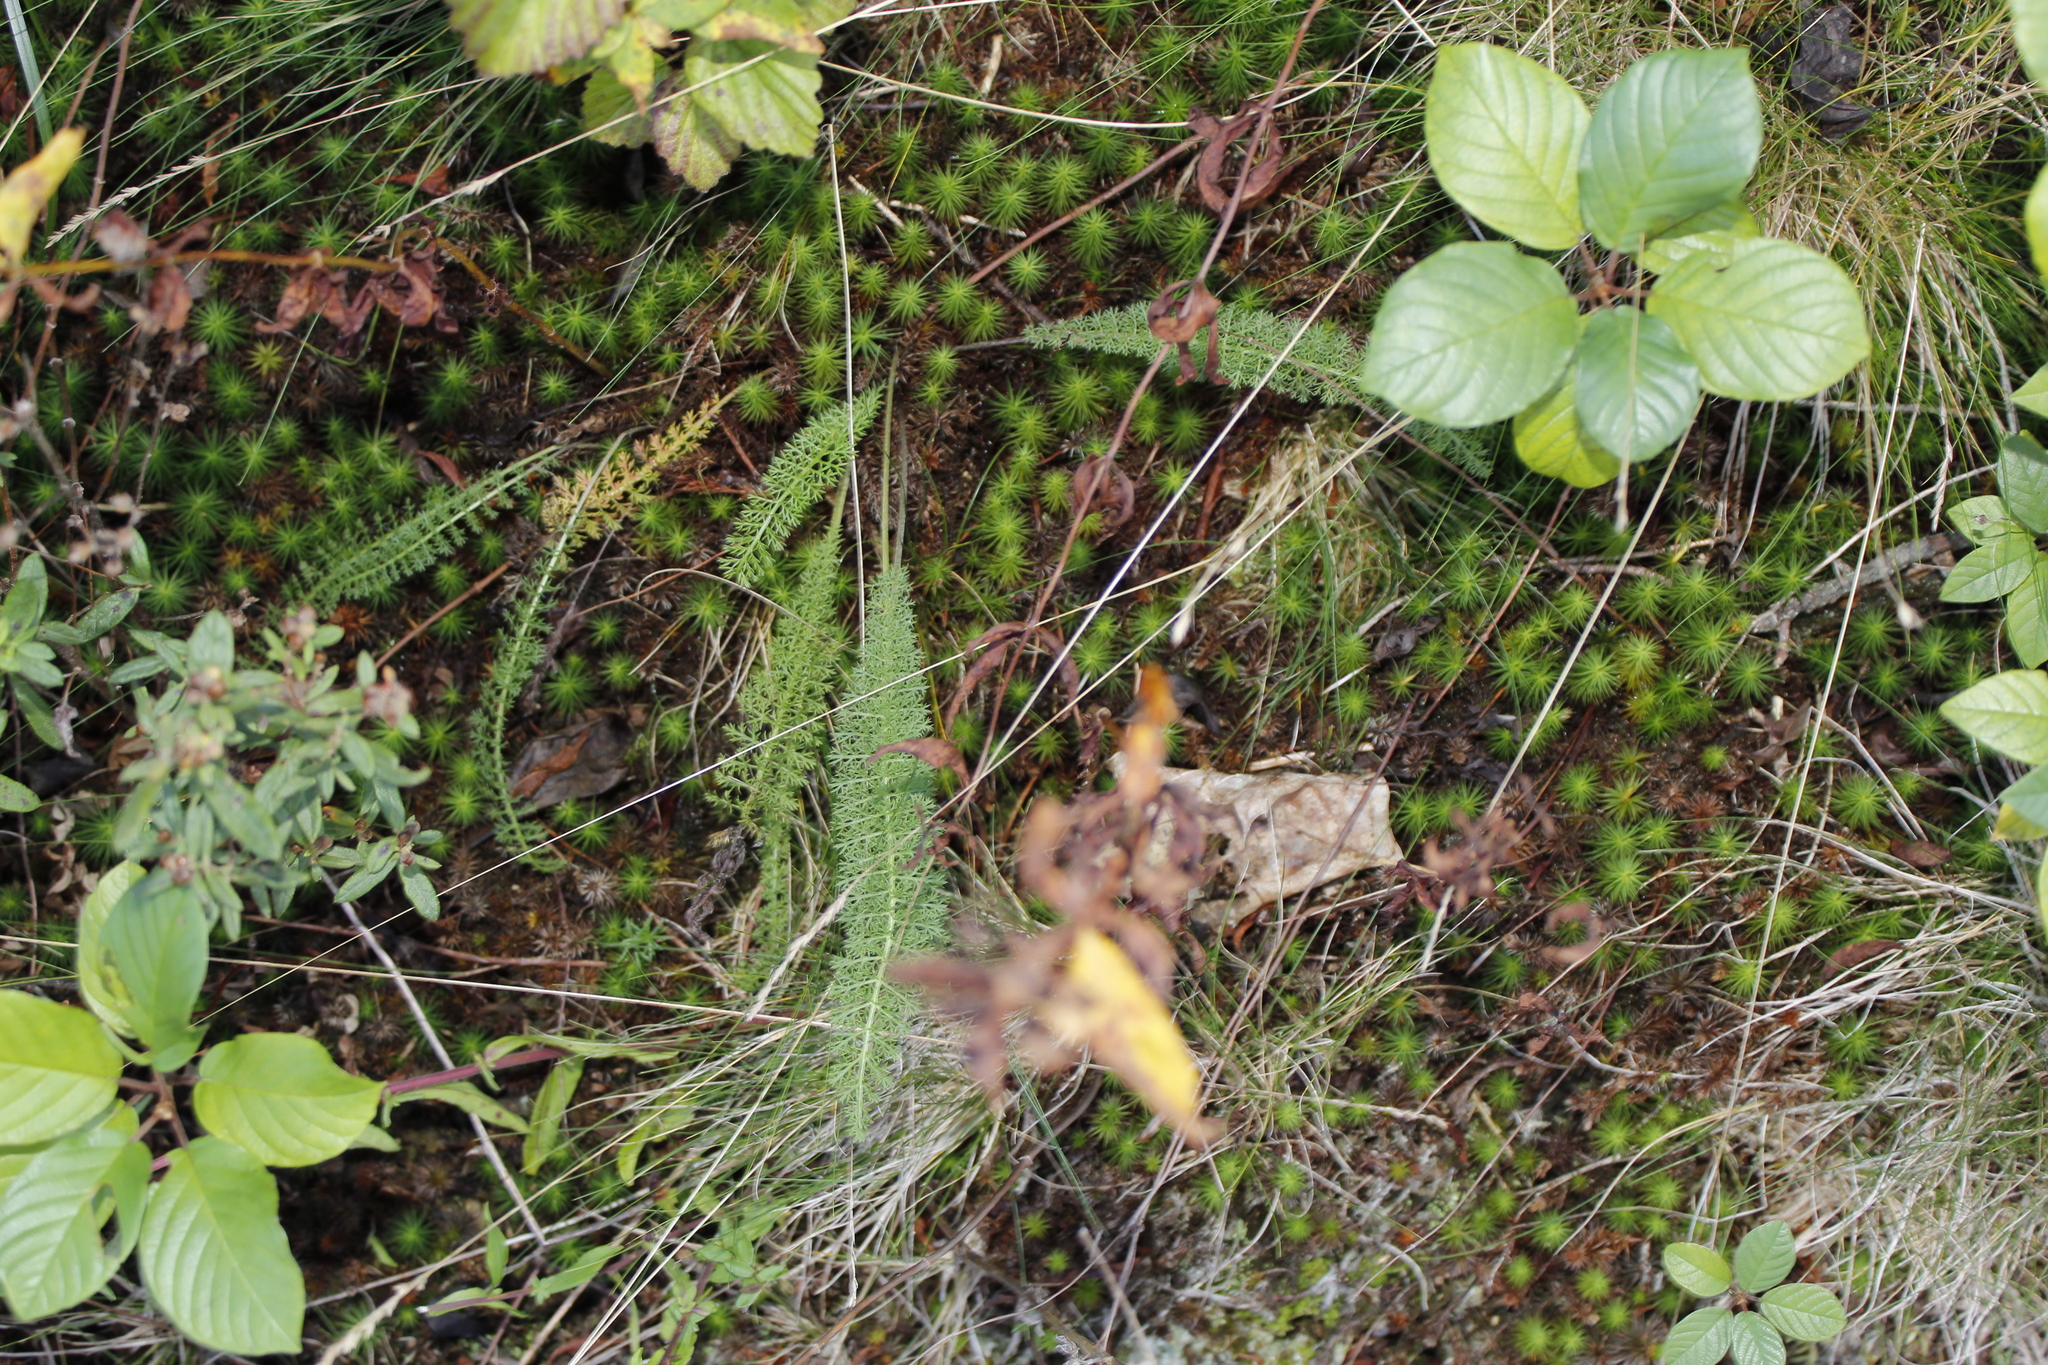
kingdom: Plantae
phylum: Tracheophyta
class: Magnoliopsida
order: Asterales
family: Asteraceae
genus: Achillea
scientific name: Achillea millefolium
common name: Yarrow
